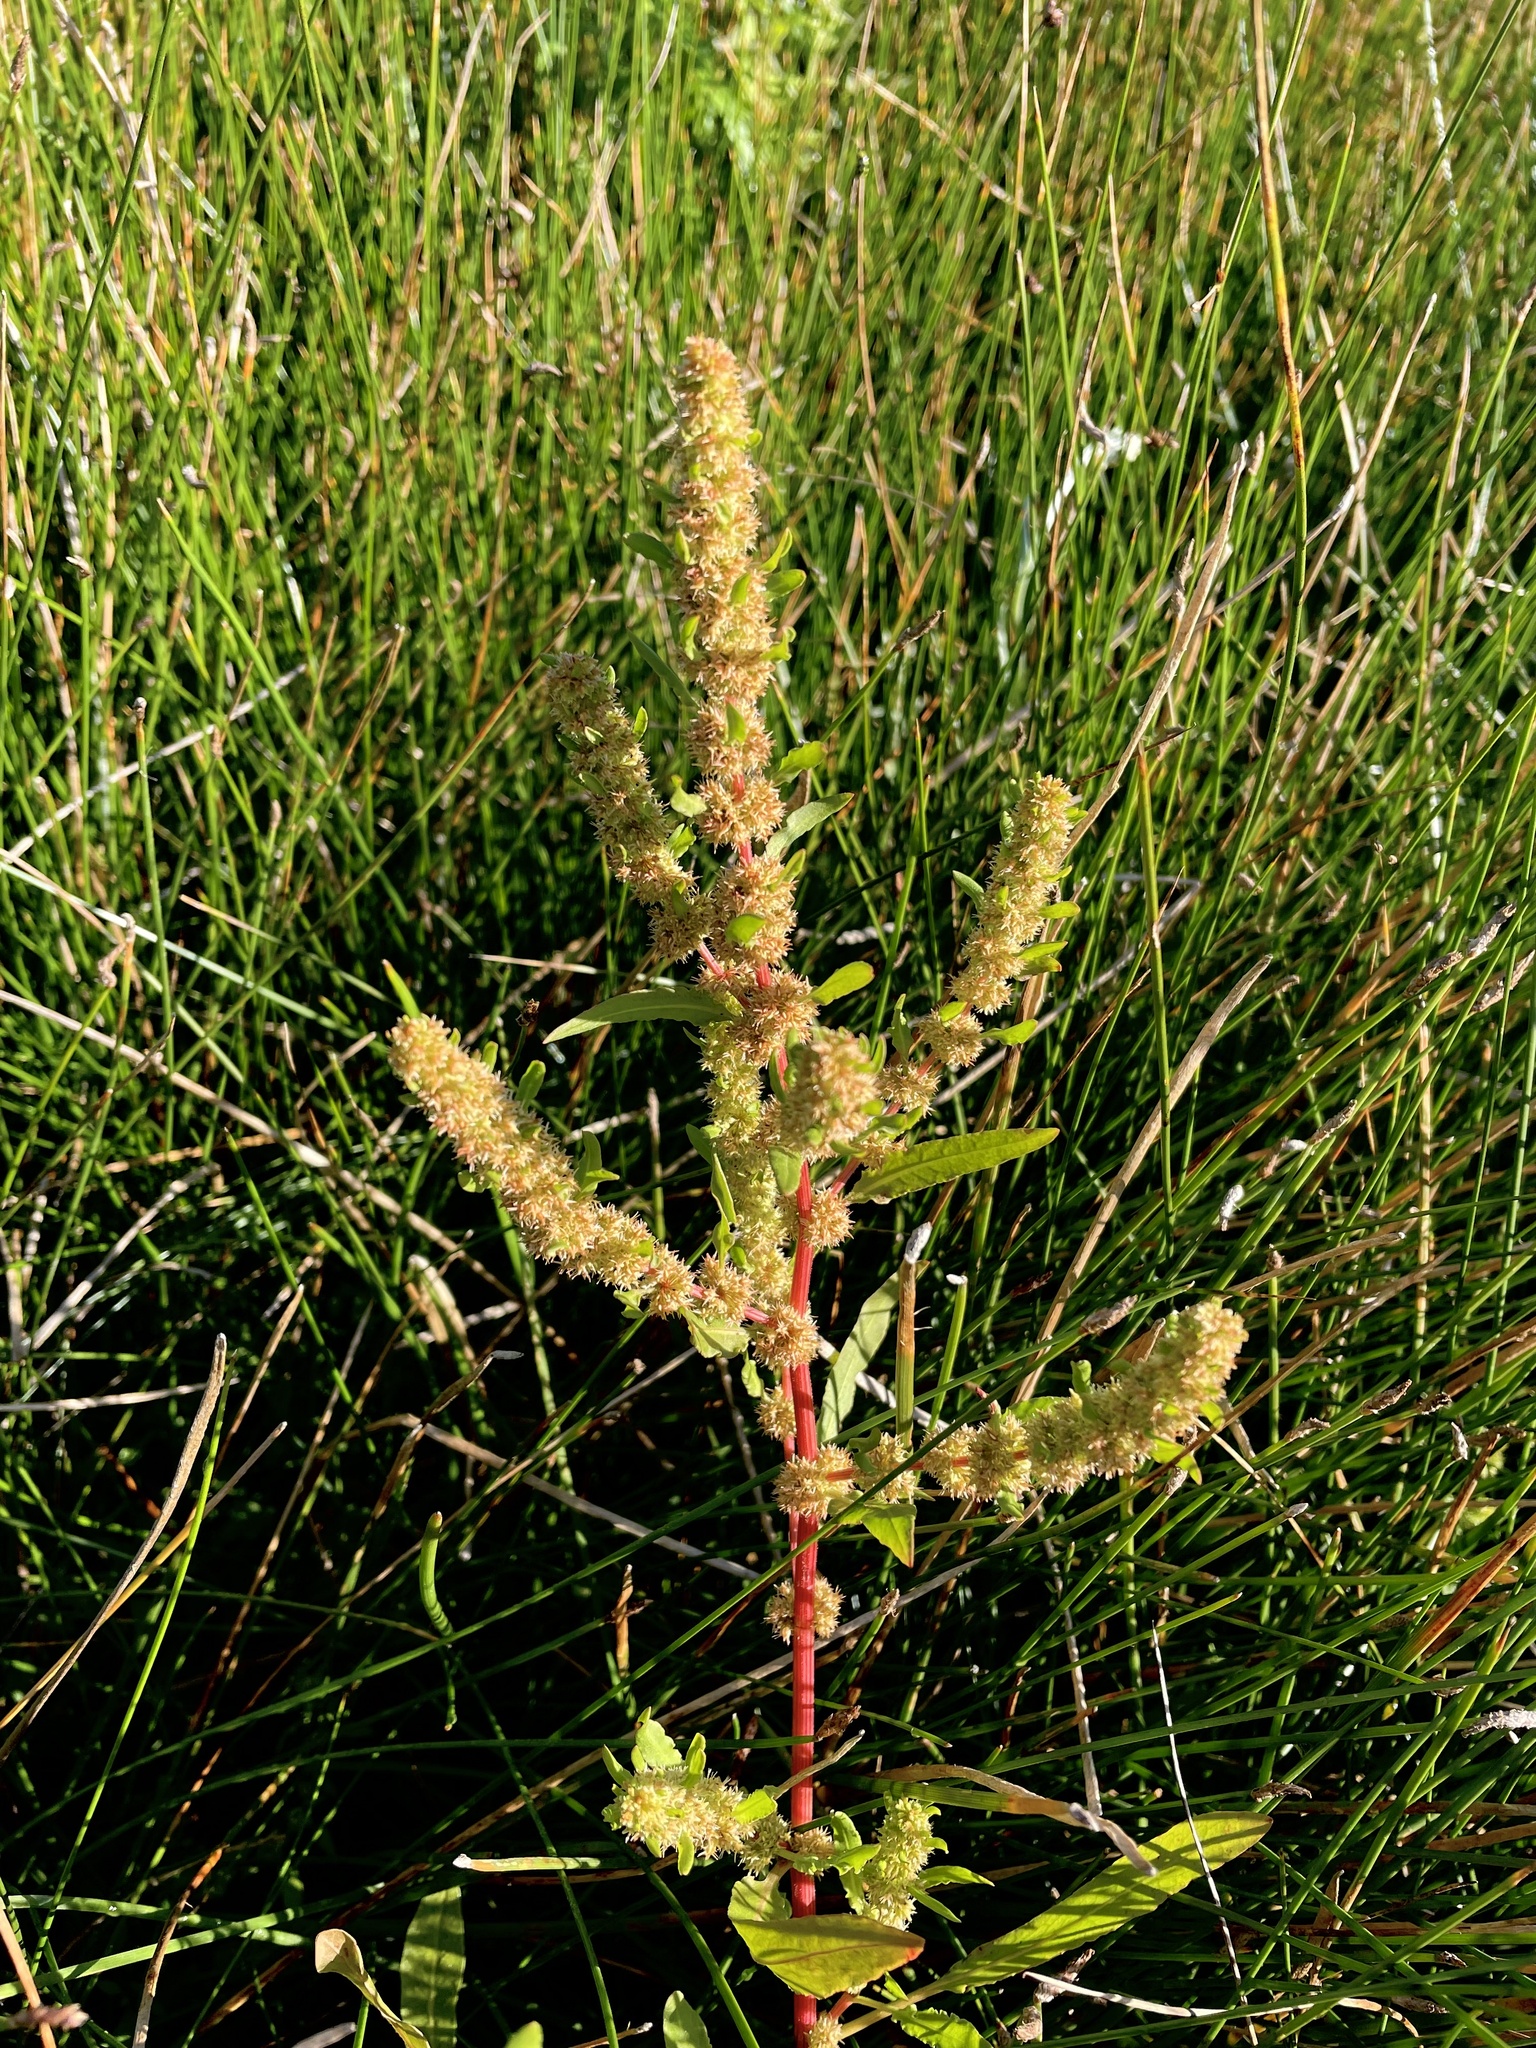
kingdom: Plantae
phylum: Tracheophyta
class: Magnoliopsida
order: Caryophyllales
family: Polygonaceae
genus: Rumex
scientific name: Rumex fueginus
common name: American golden dock
